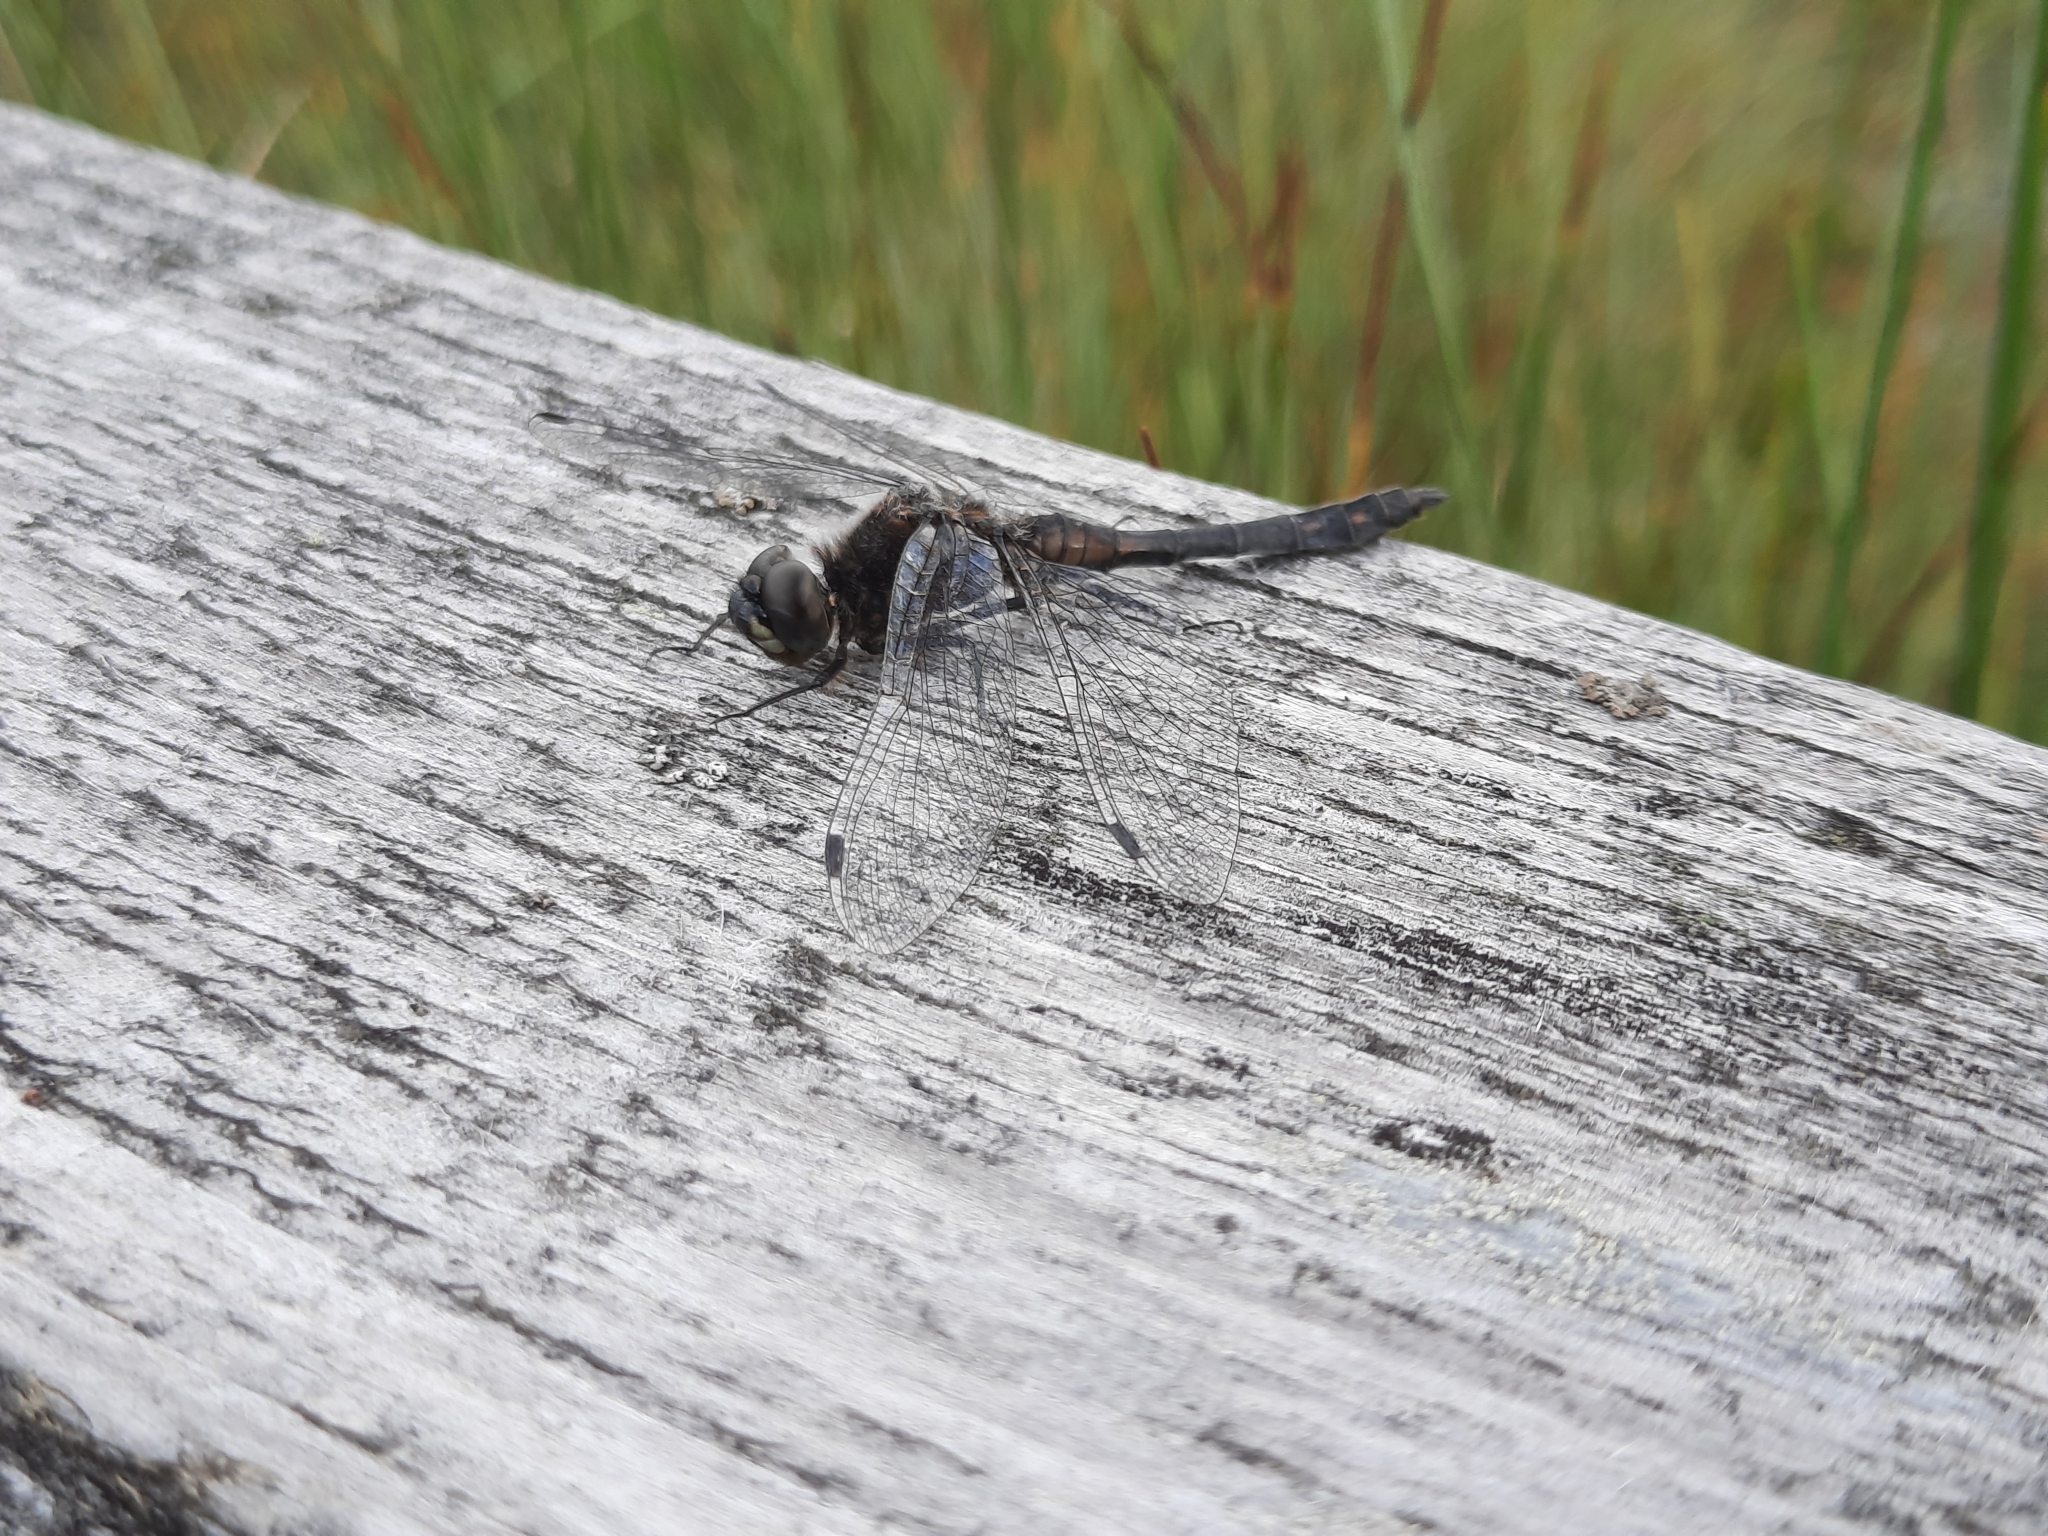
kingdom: Animalia
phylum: Arthropoda
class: Insecta
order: Odonata
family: Libellulidae
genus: Sympetrum
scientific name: Sympetrum danae
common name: Black darter
